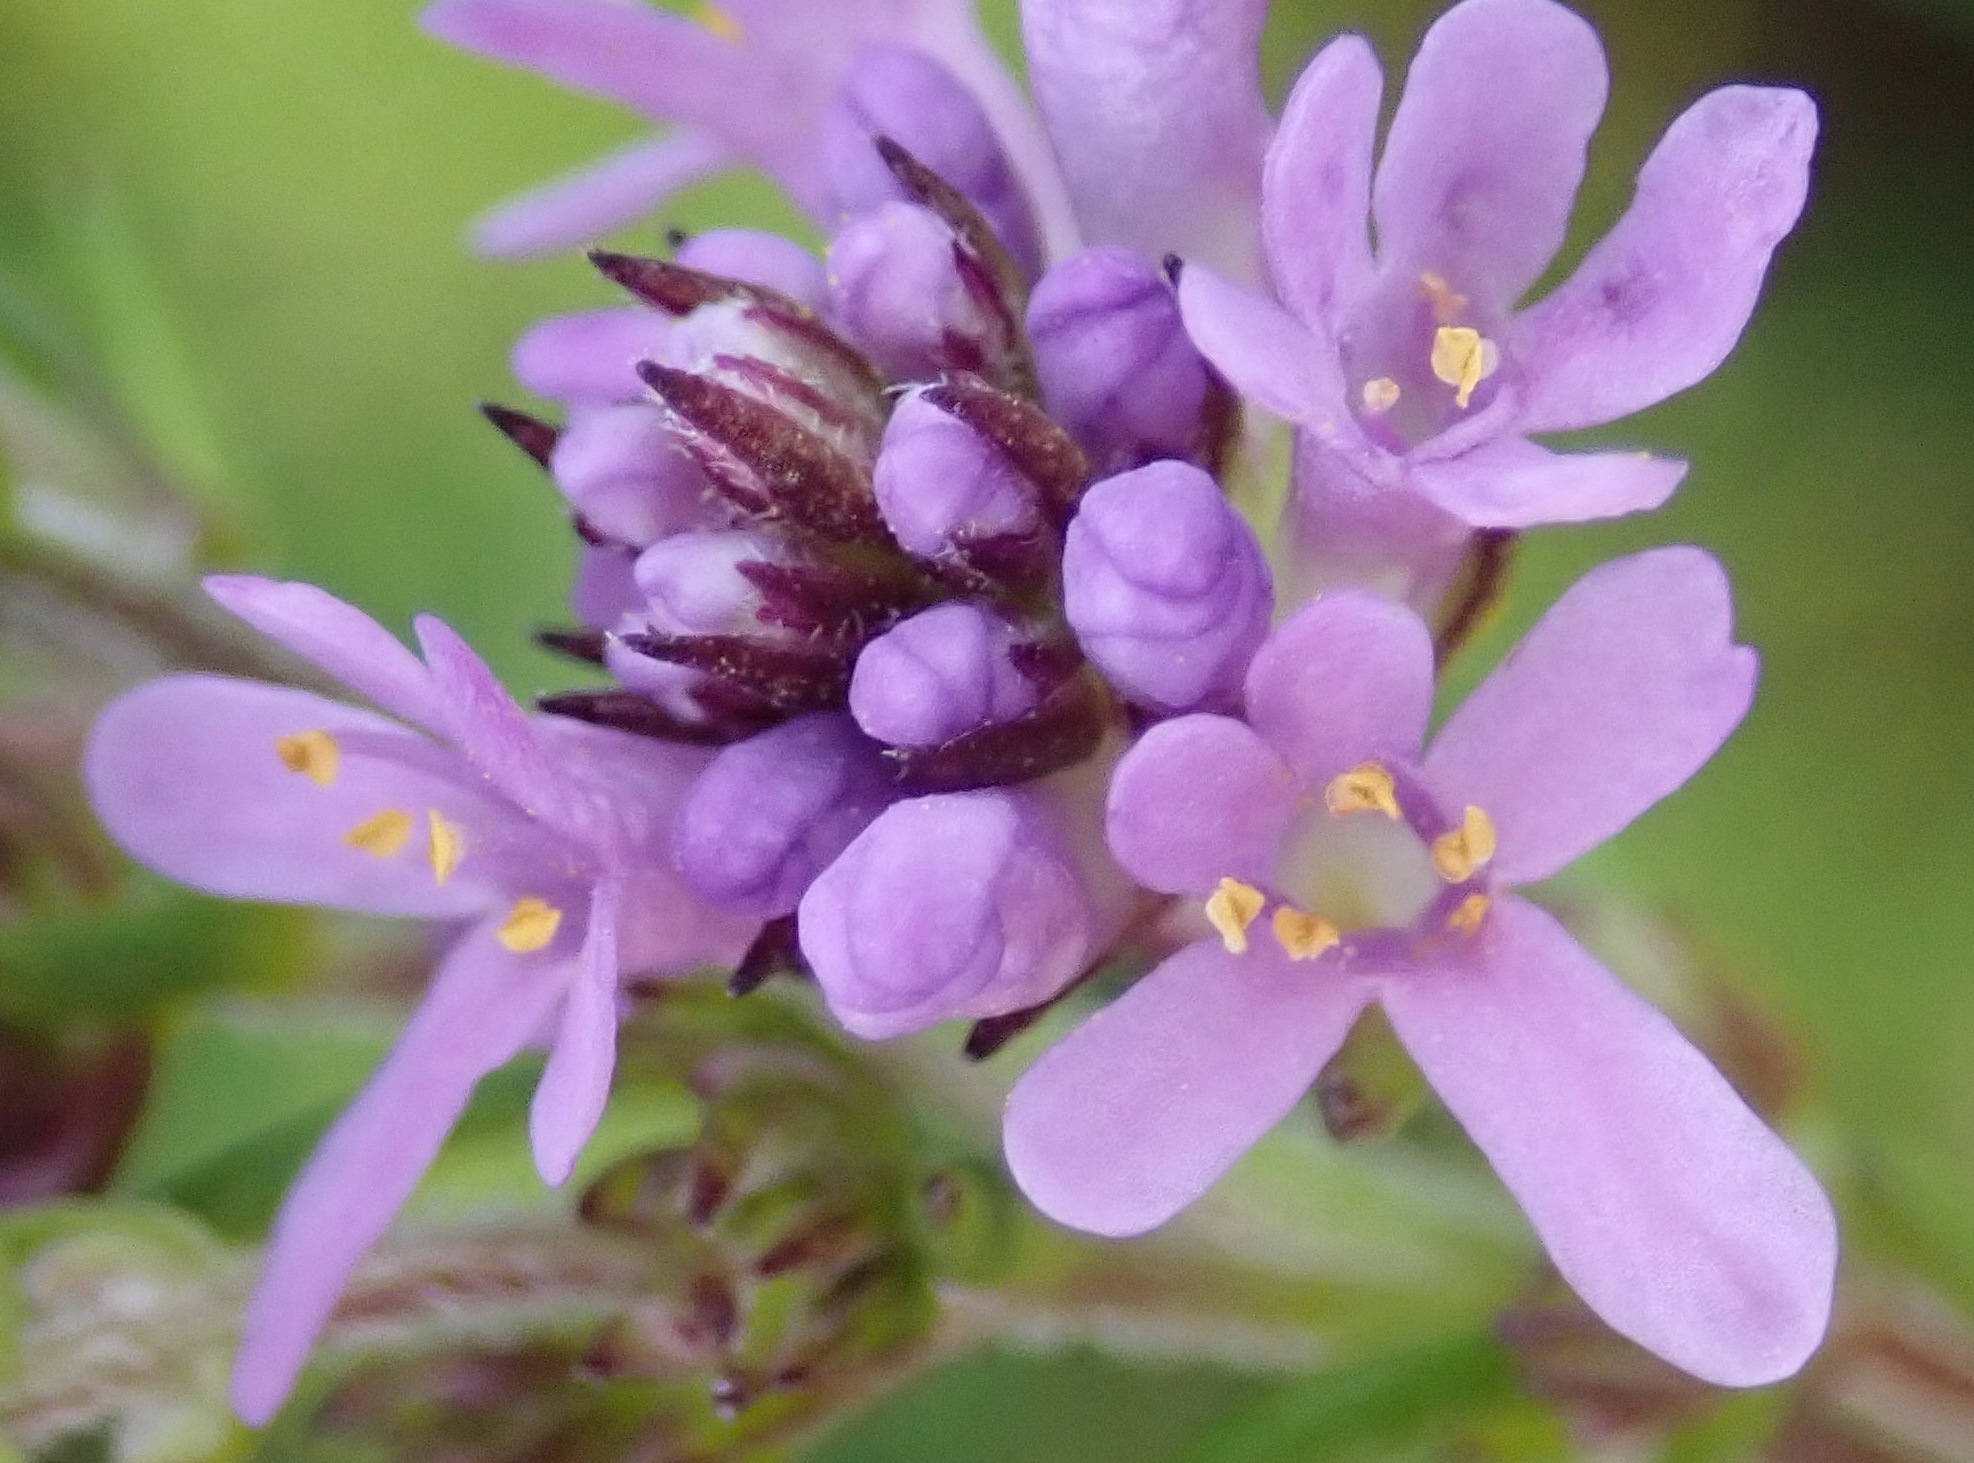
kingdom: Plantae
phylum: Tracheophyta
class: Magnoliopsida
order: Lamiales
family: Scrophulariaceae
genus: Selago
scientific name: Selago villicaulis
